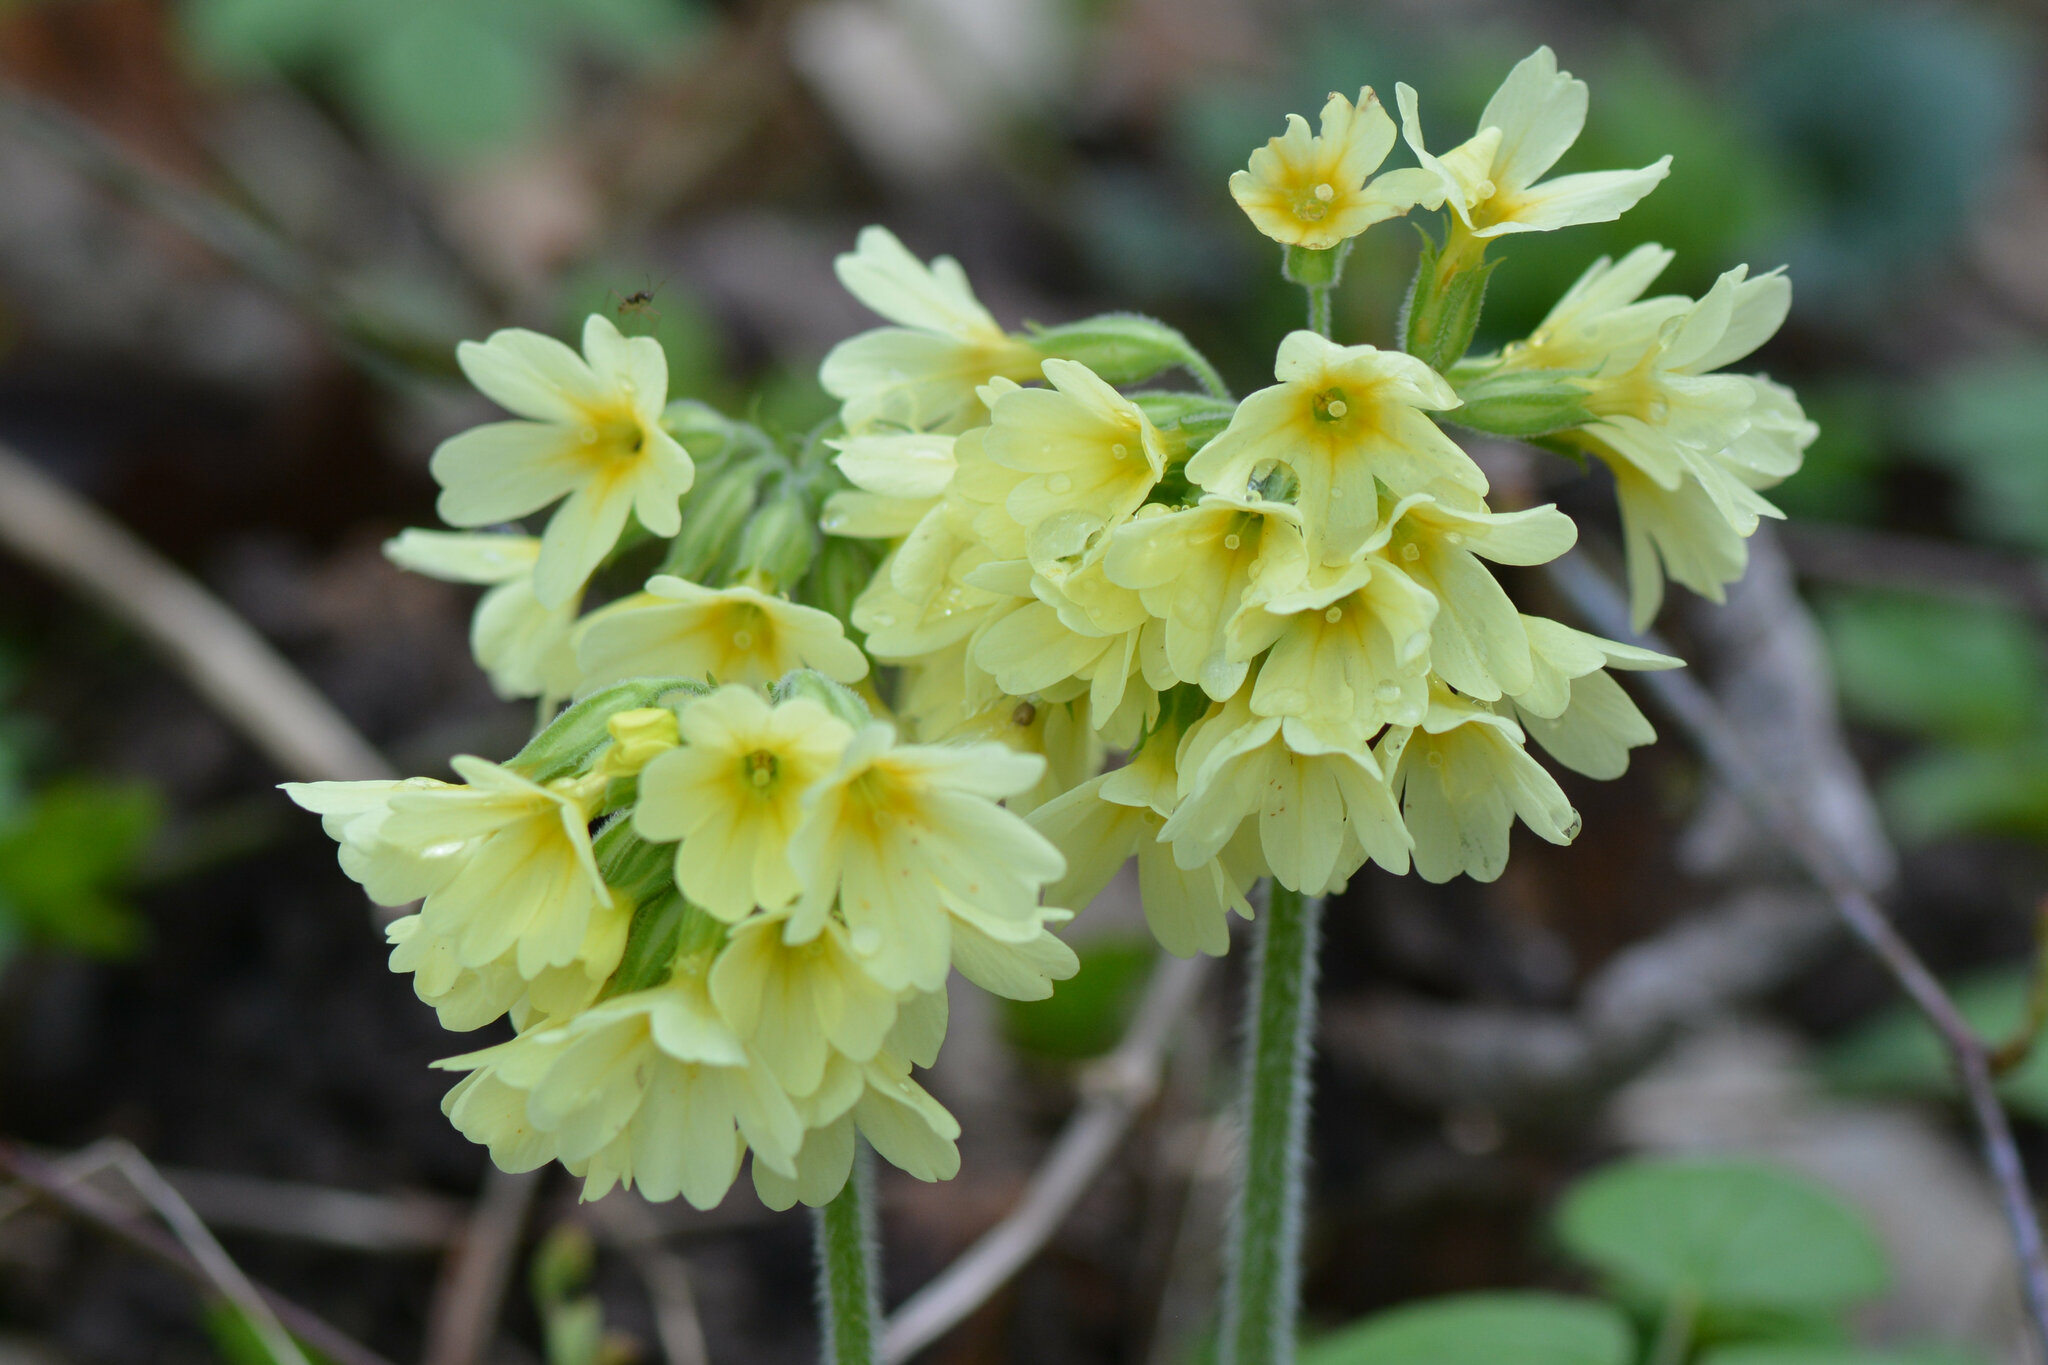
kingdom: Plantae
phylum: Tracheophyta
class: Magnoliopsida
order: Ericales
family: Primulaceae
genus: Primula
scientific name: Primula elatior
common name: Oxlip
